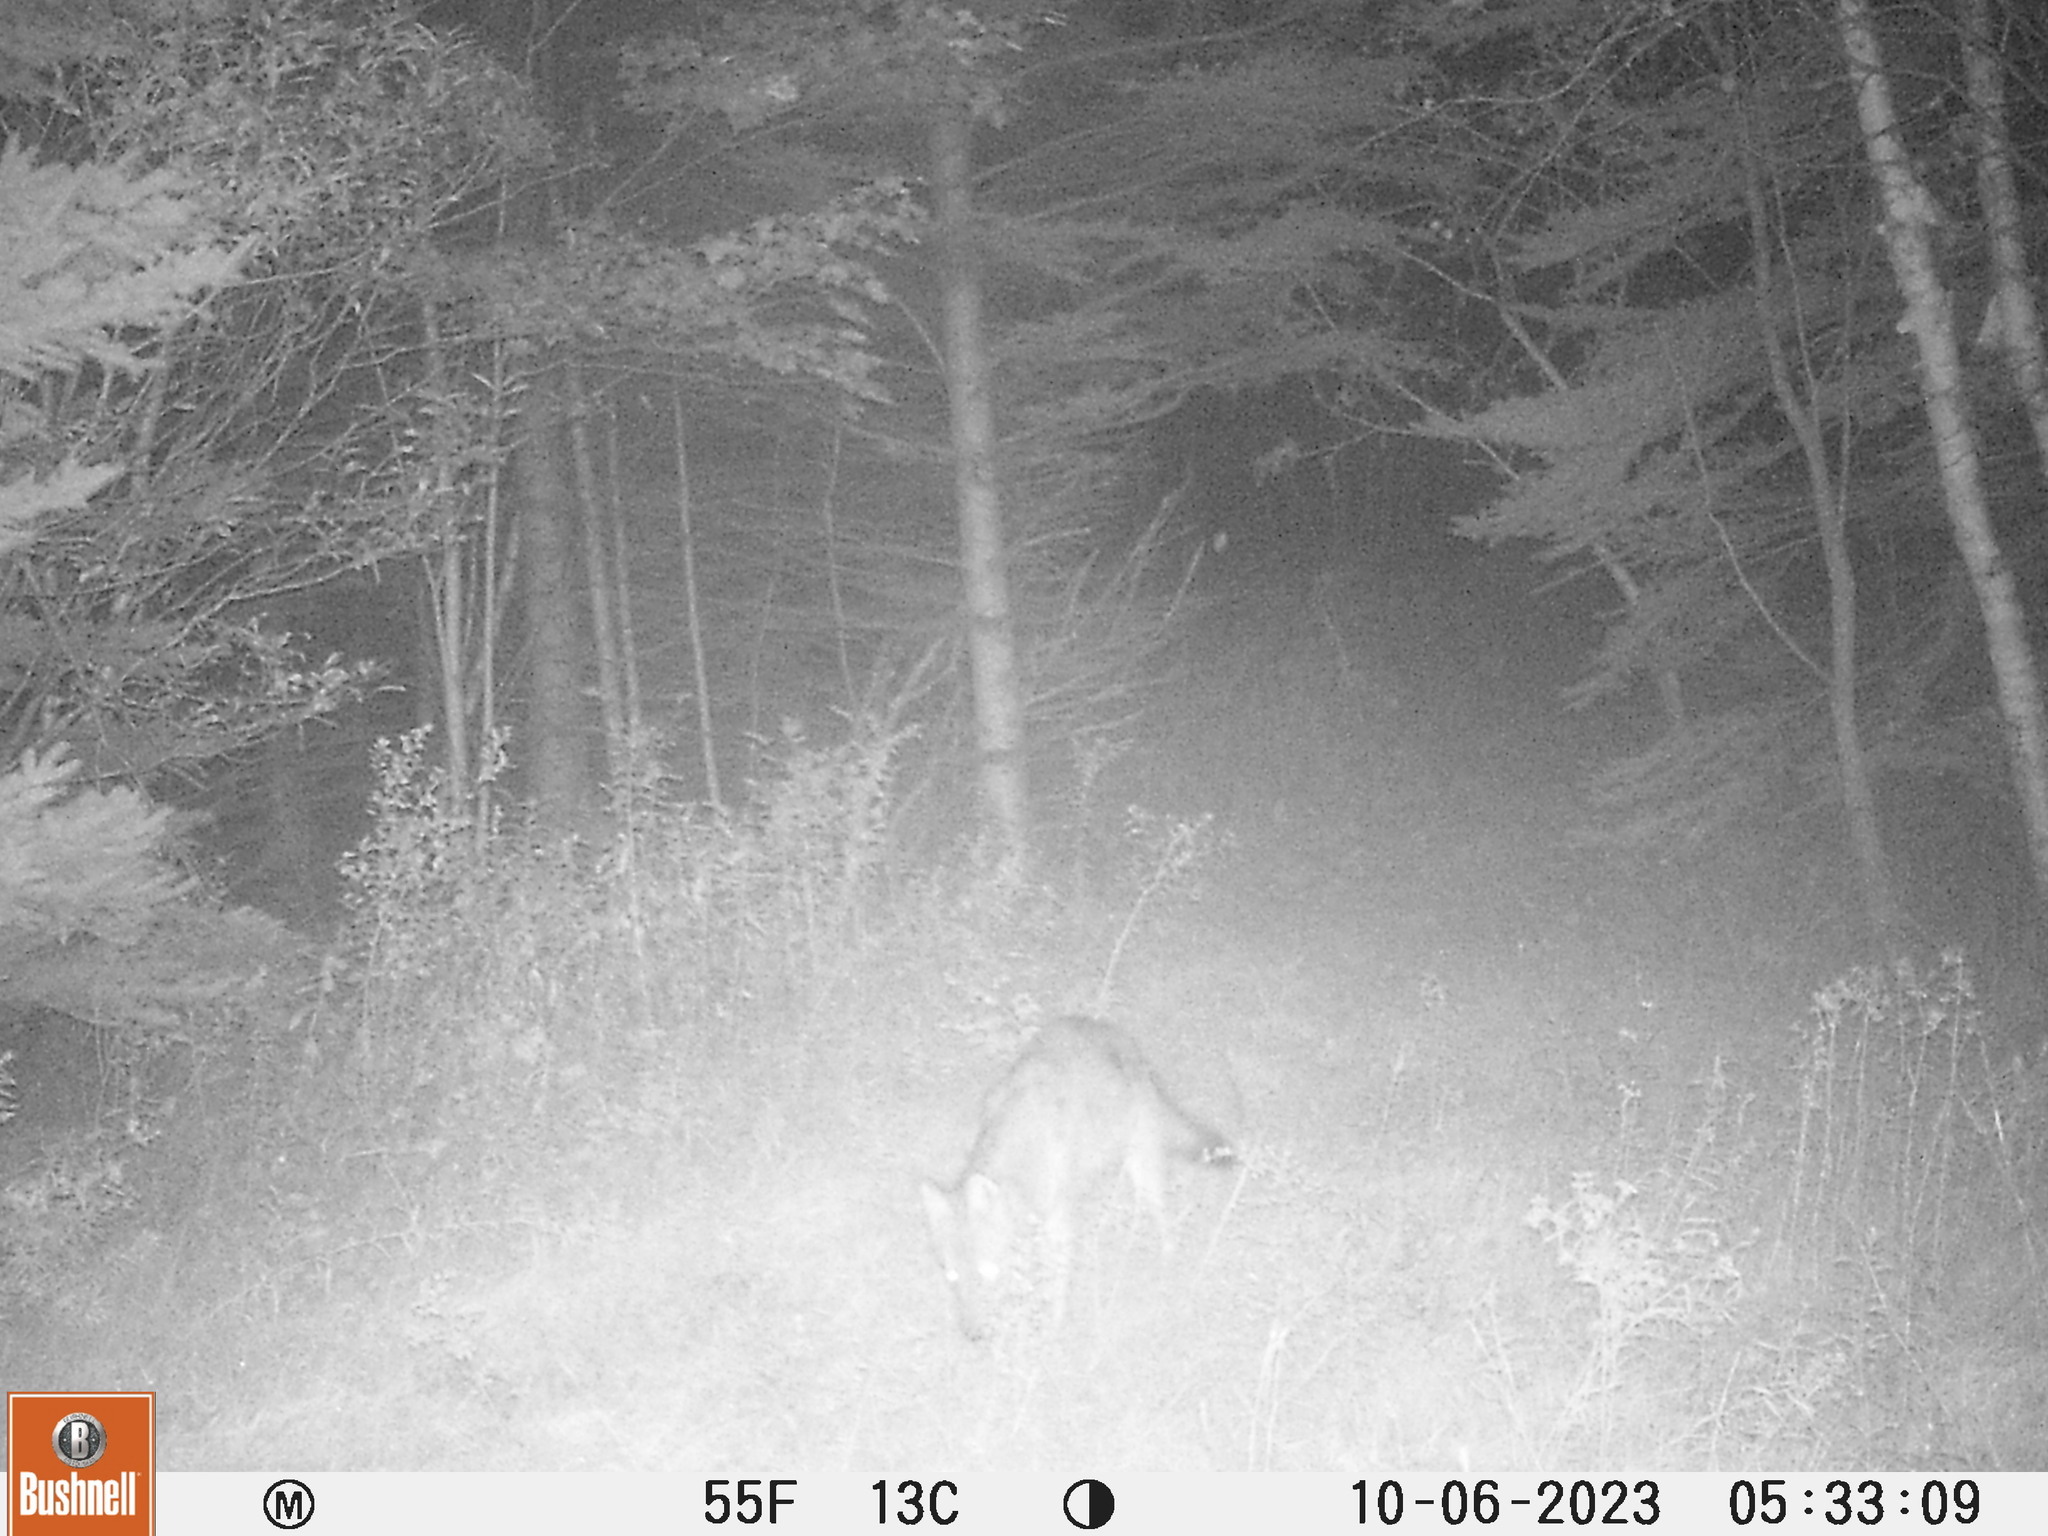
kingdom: Animalia
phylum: Chordata
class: Mammalia
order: Carnivora
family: Canidae
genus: Canis
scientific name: Canis latrans
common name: Coyote
